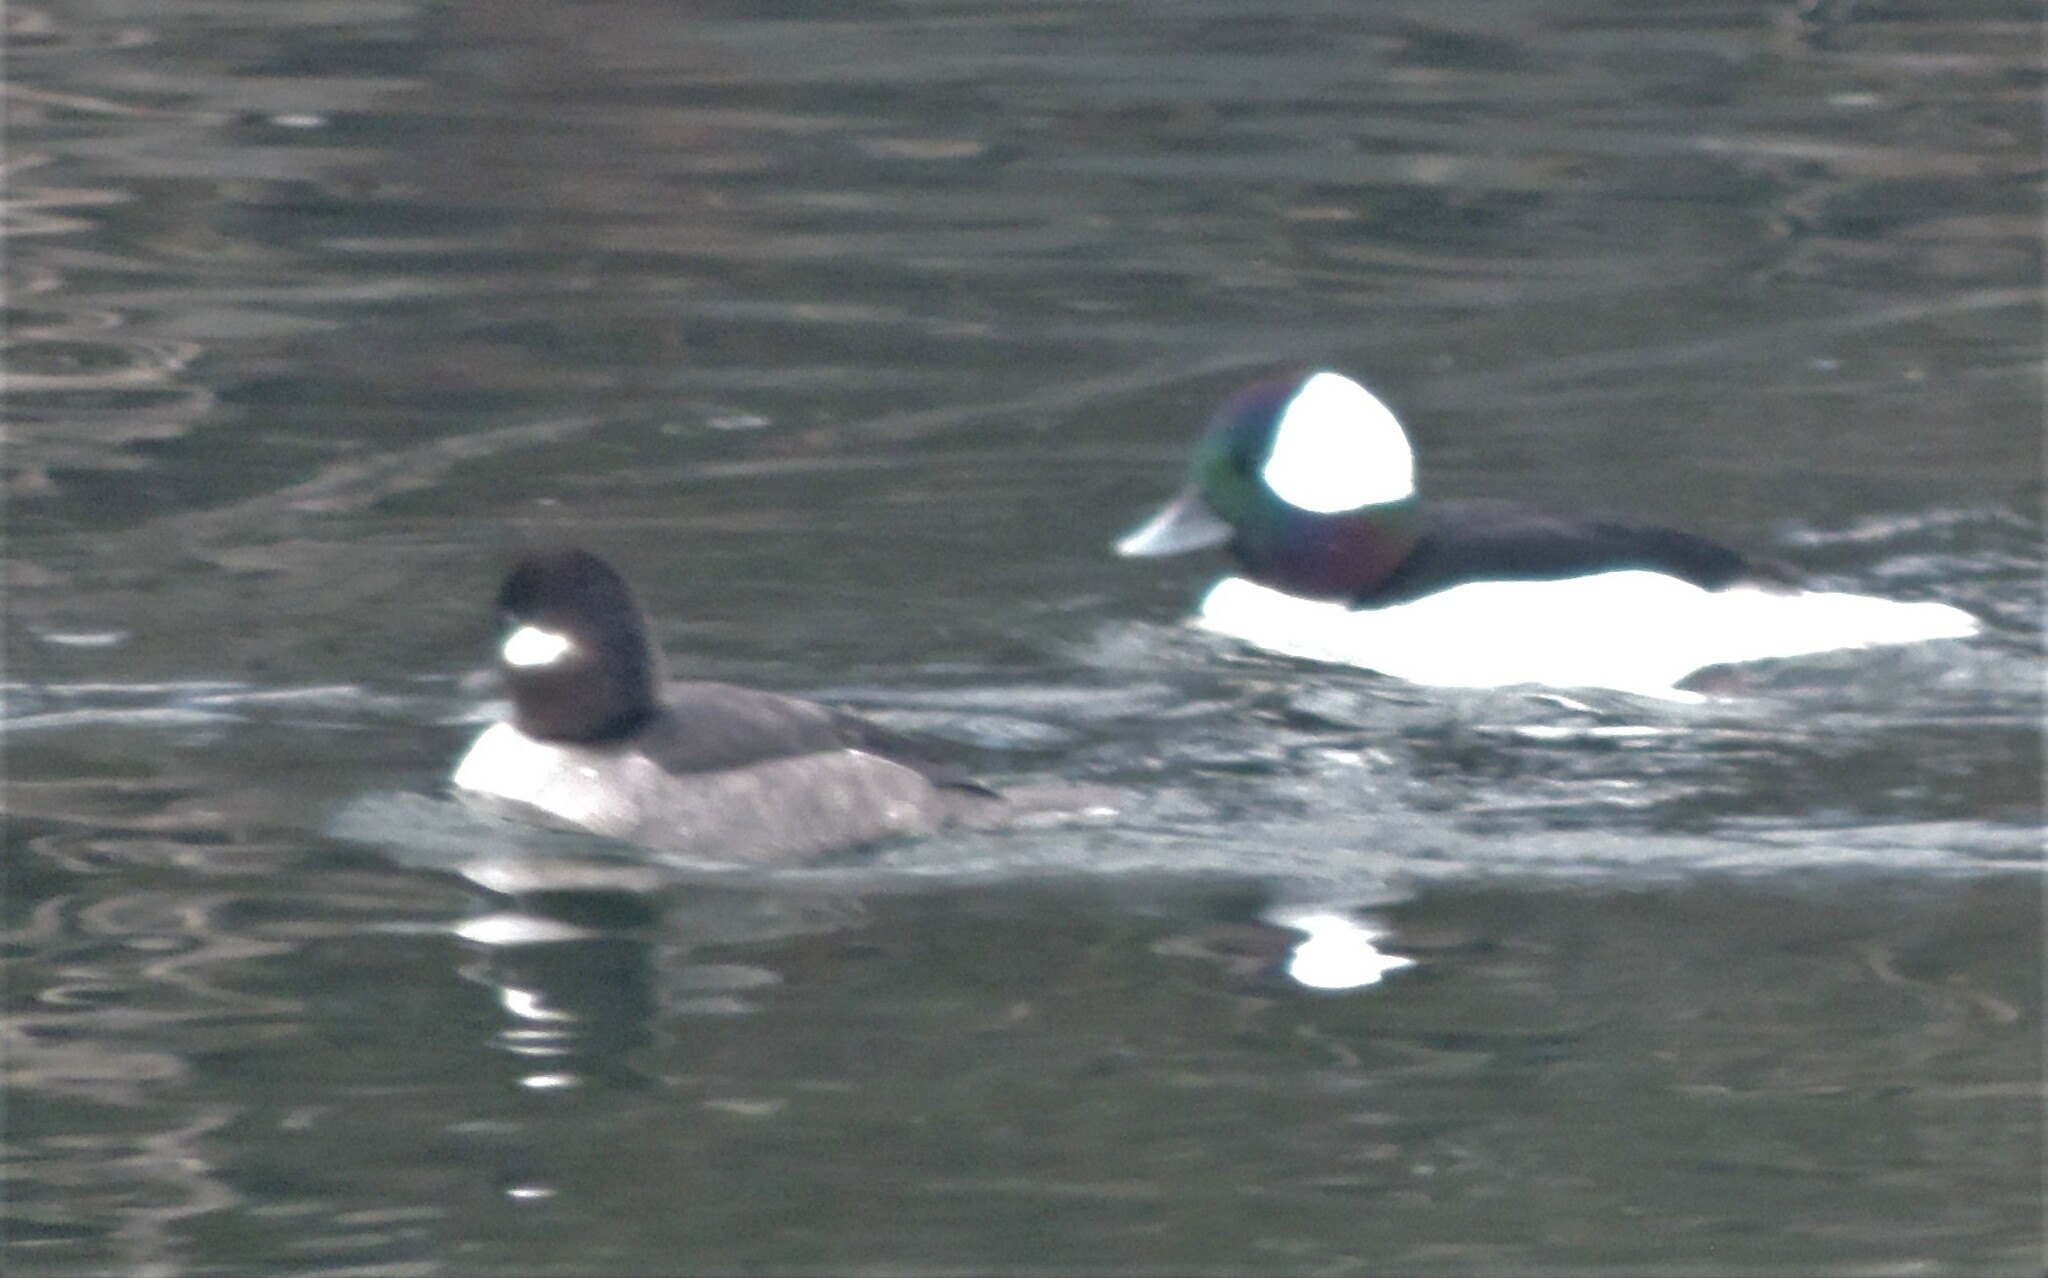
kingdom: Animalia
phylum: Chordata
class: Aves
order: Anseriformes
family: Anatidae
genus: Bucephala
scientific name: Bucephala albeola
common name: Bufflehead
